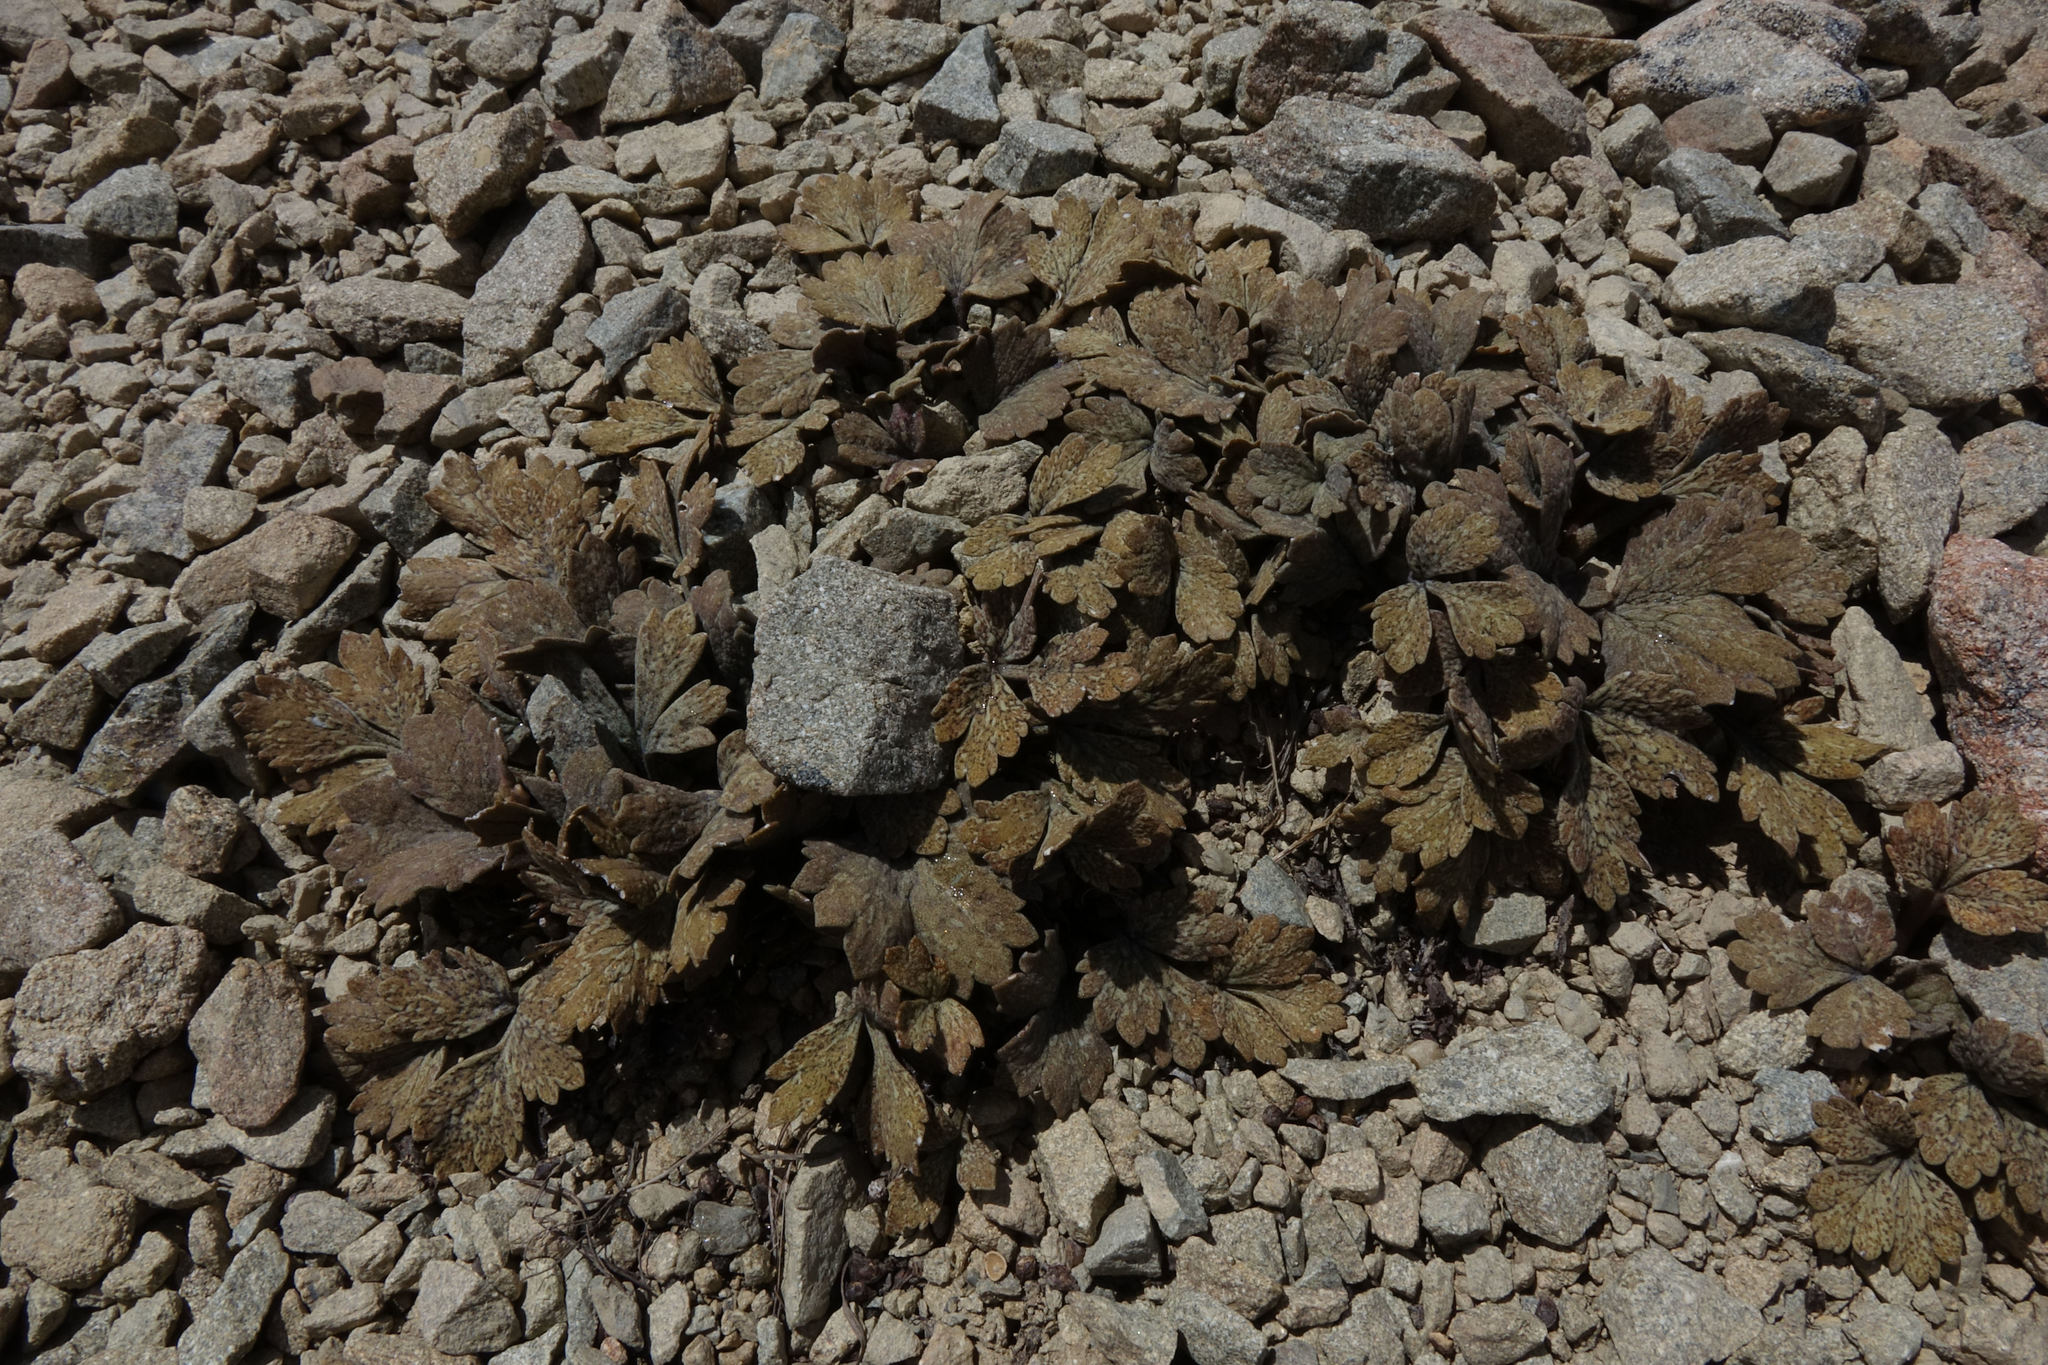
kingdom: Plantae
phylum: Tracheophyta
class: Magnoliopsida
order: Ranunculales
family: Ranunculaceae
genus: Ranunculus
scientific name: Ranunculus crithmifolius
